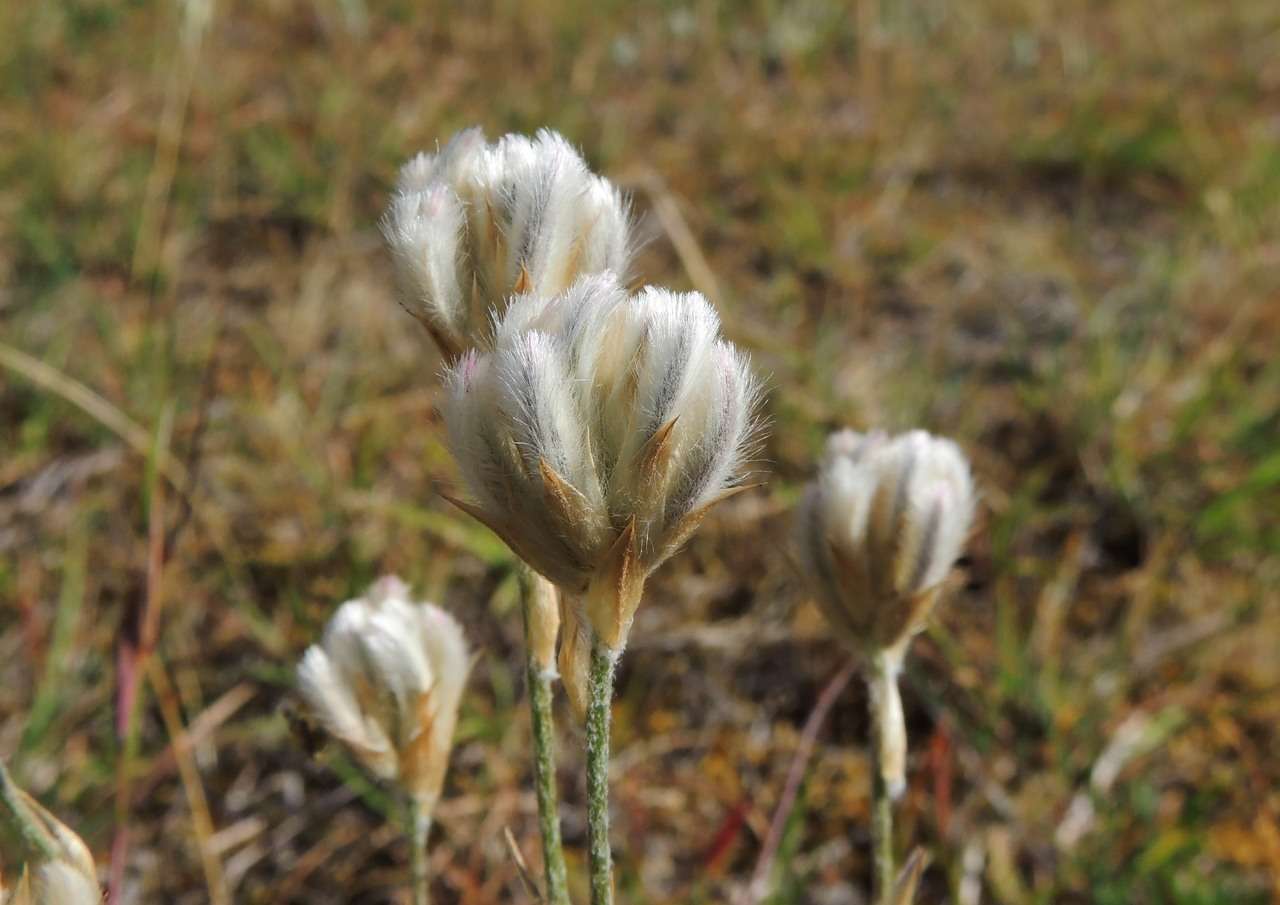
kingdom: Plantae
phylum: Tracheophyta
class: Magnoliopsida
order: Caryophyllales
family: Amaranthaceae
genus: Ptilotus
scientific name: Ptilotus erubescens
